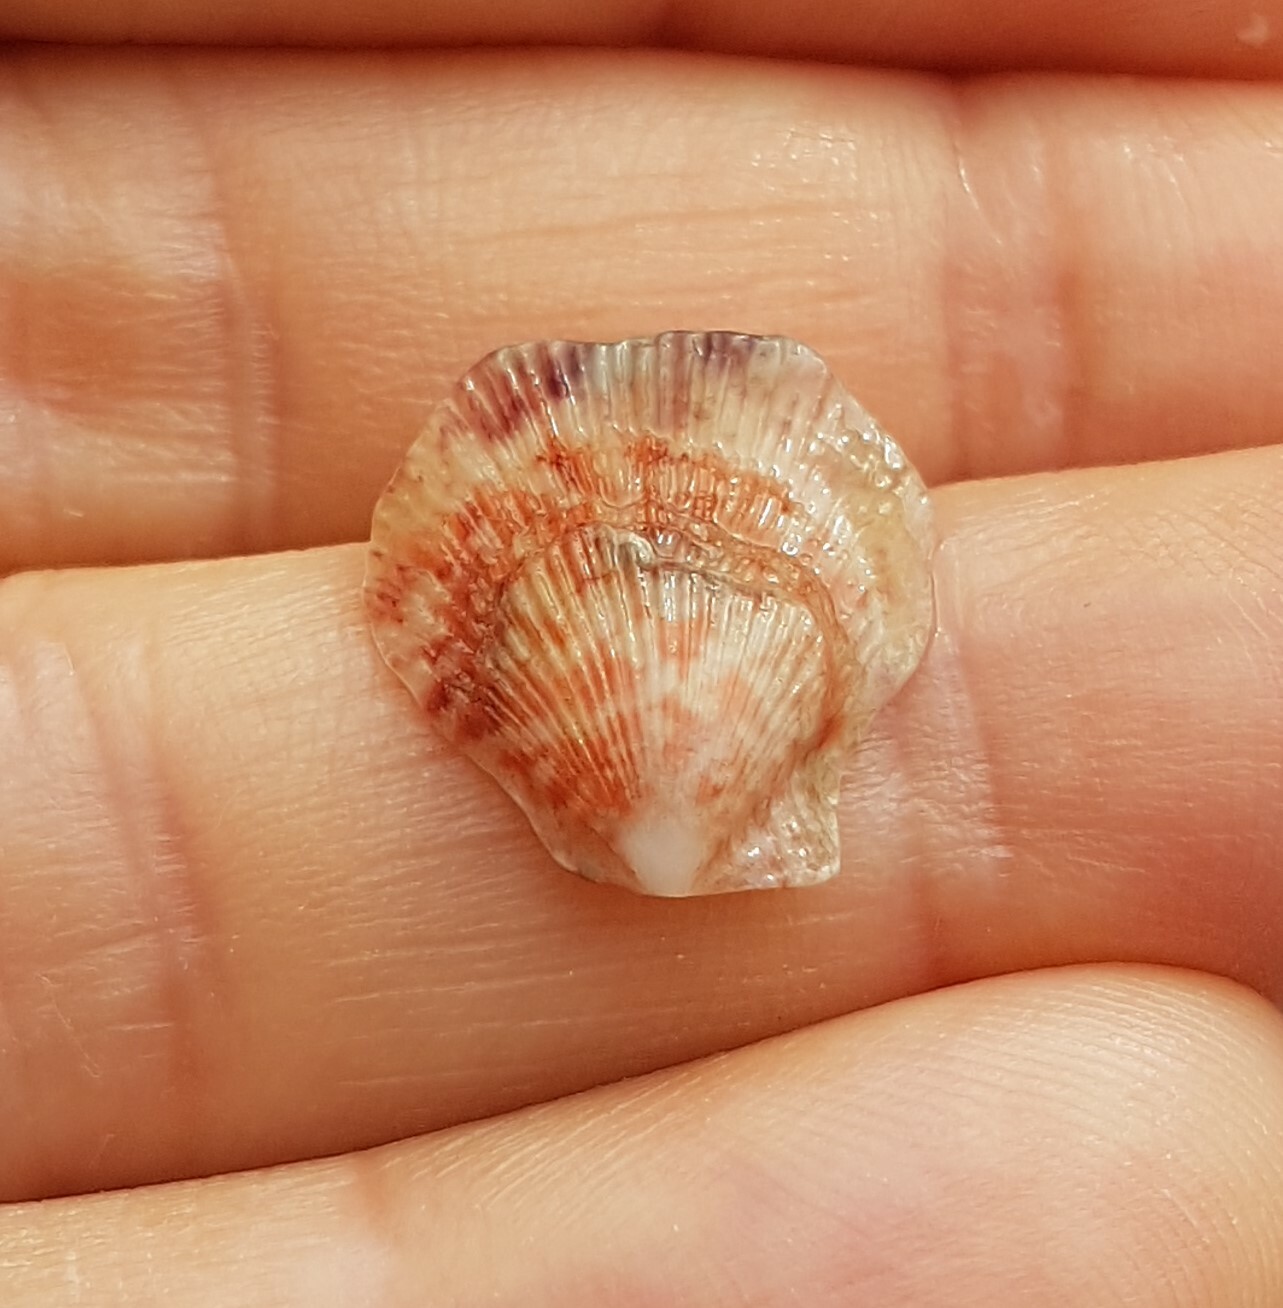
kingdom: Animalia
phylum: Mollusca
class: Bivalvia
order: Pectinida
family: Pectinidae
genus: Talochlamys
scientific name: Talochlamys pusio
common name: Hunchback scallop
